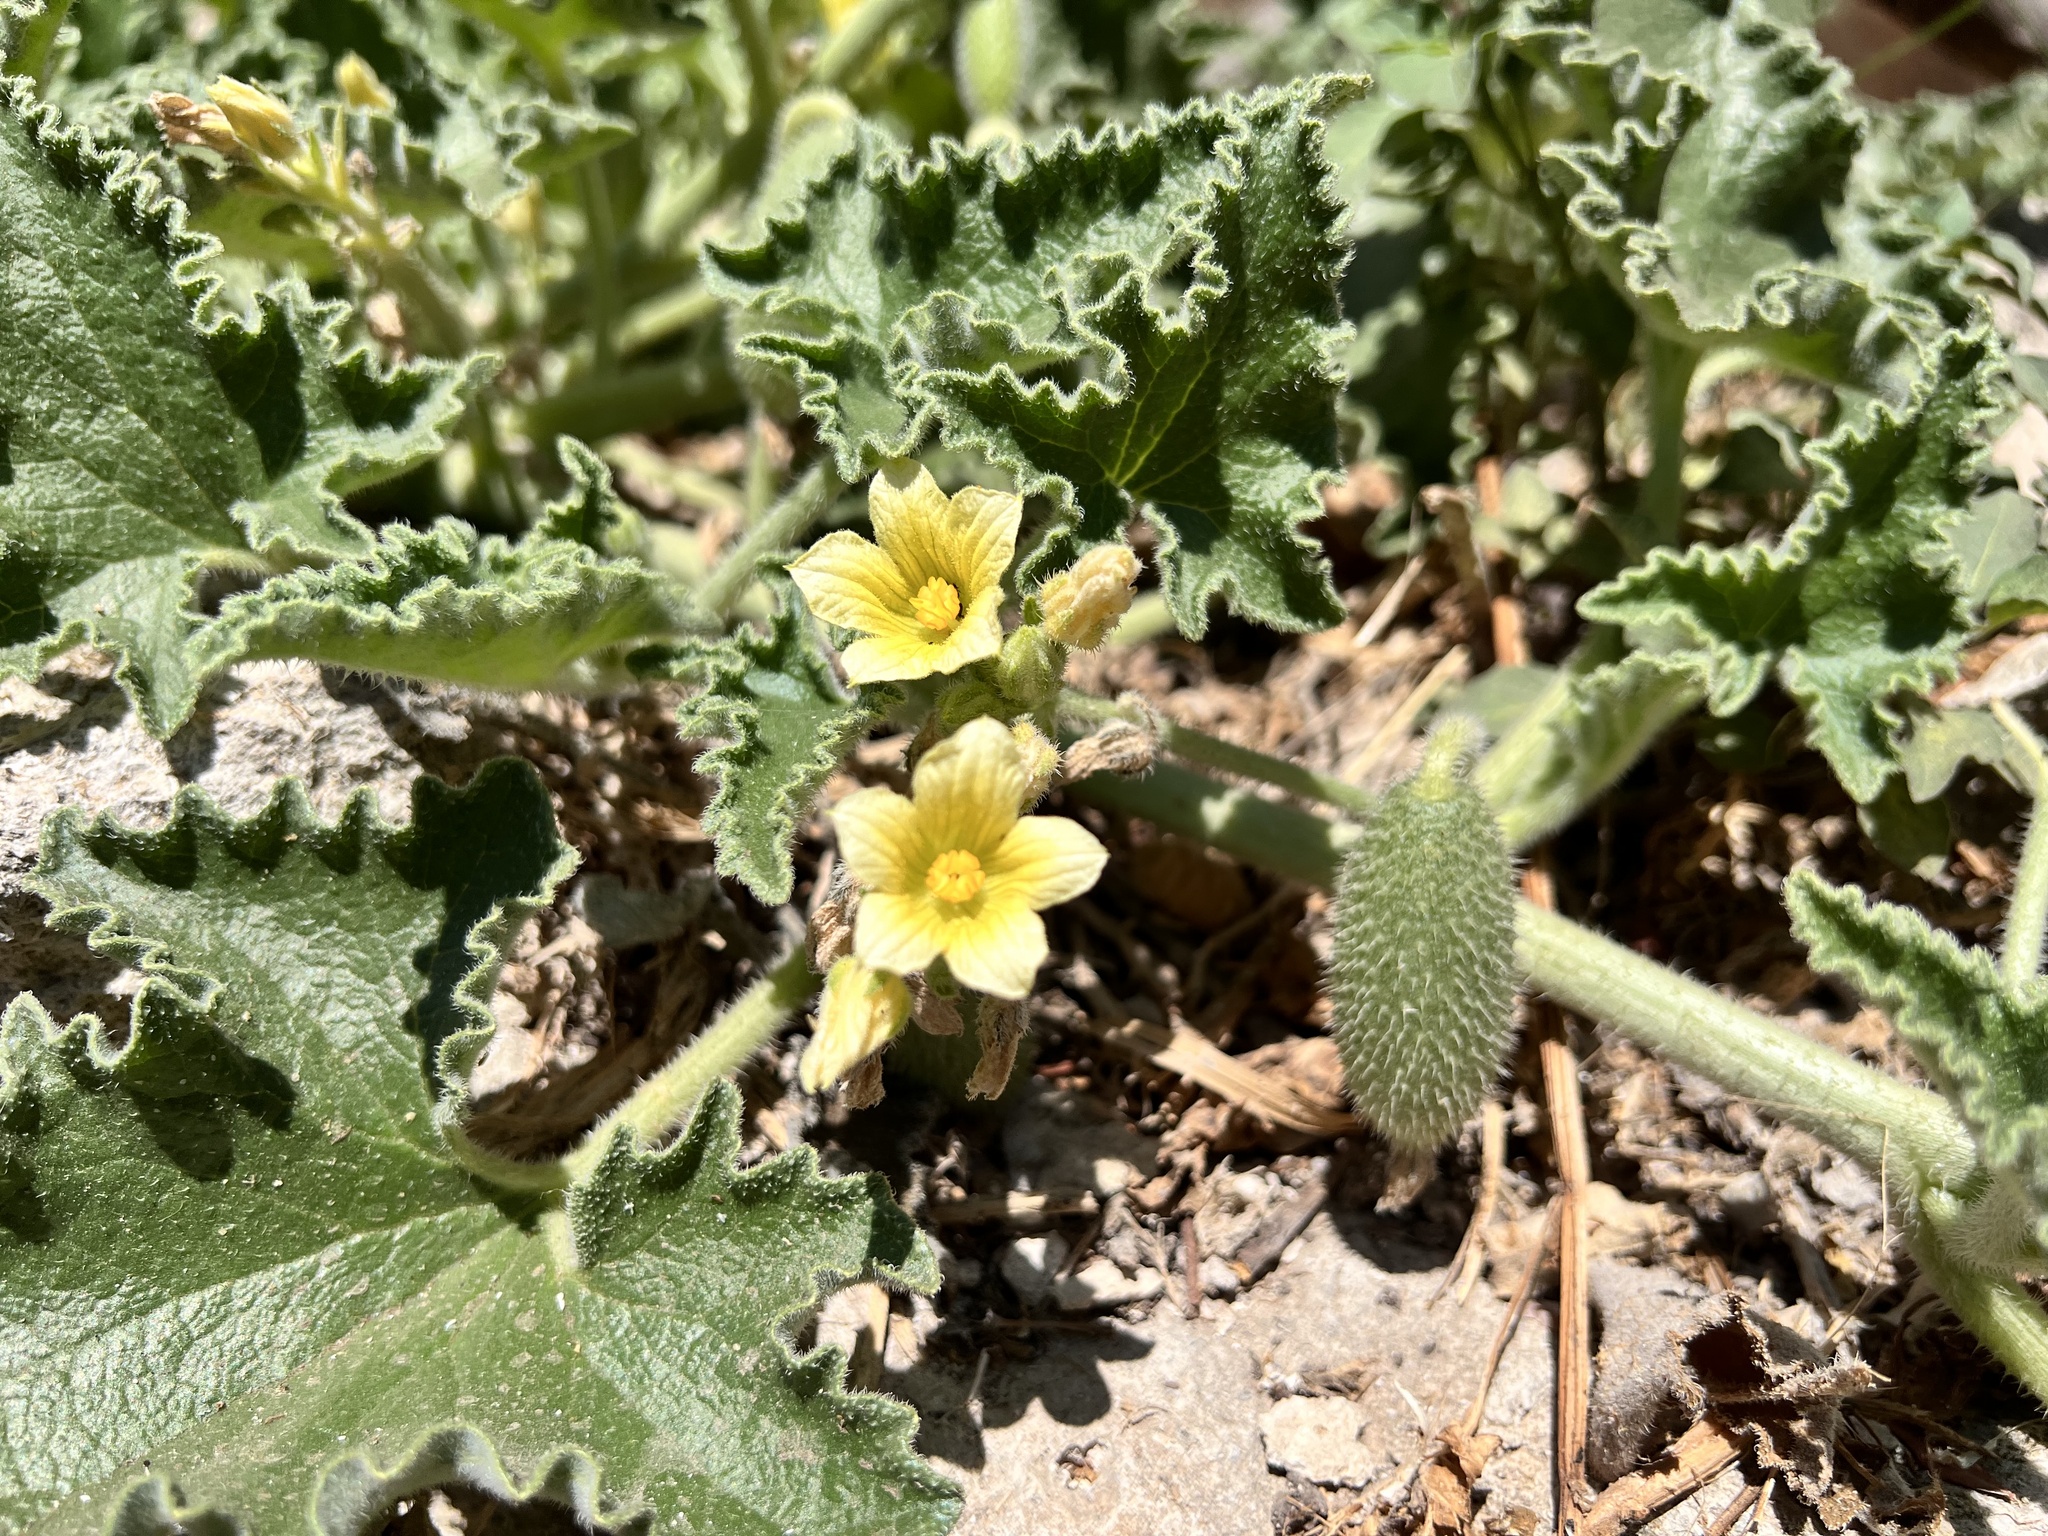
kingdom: Plantae
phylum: Tracheophyta
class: Magnoliopsida
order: Cucurbitales
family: Cucurbitaceae
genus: Ecballium
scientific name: Ecballium elaterium
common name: Squirting cucumber
